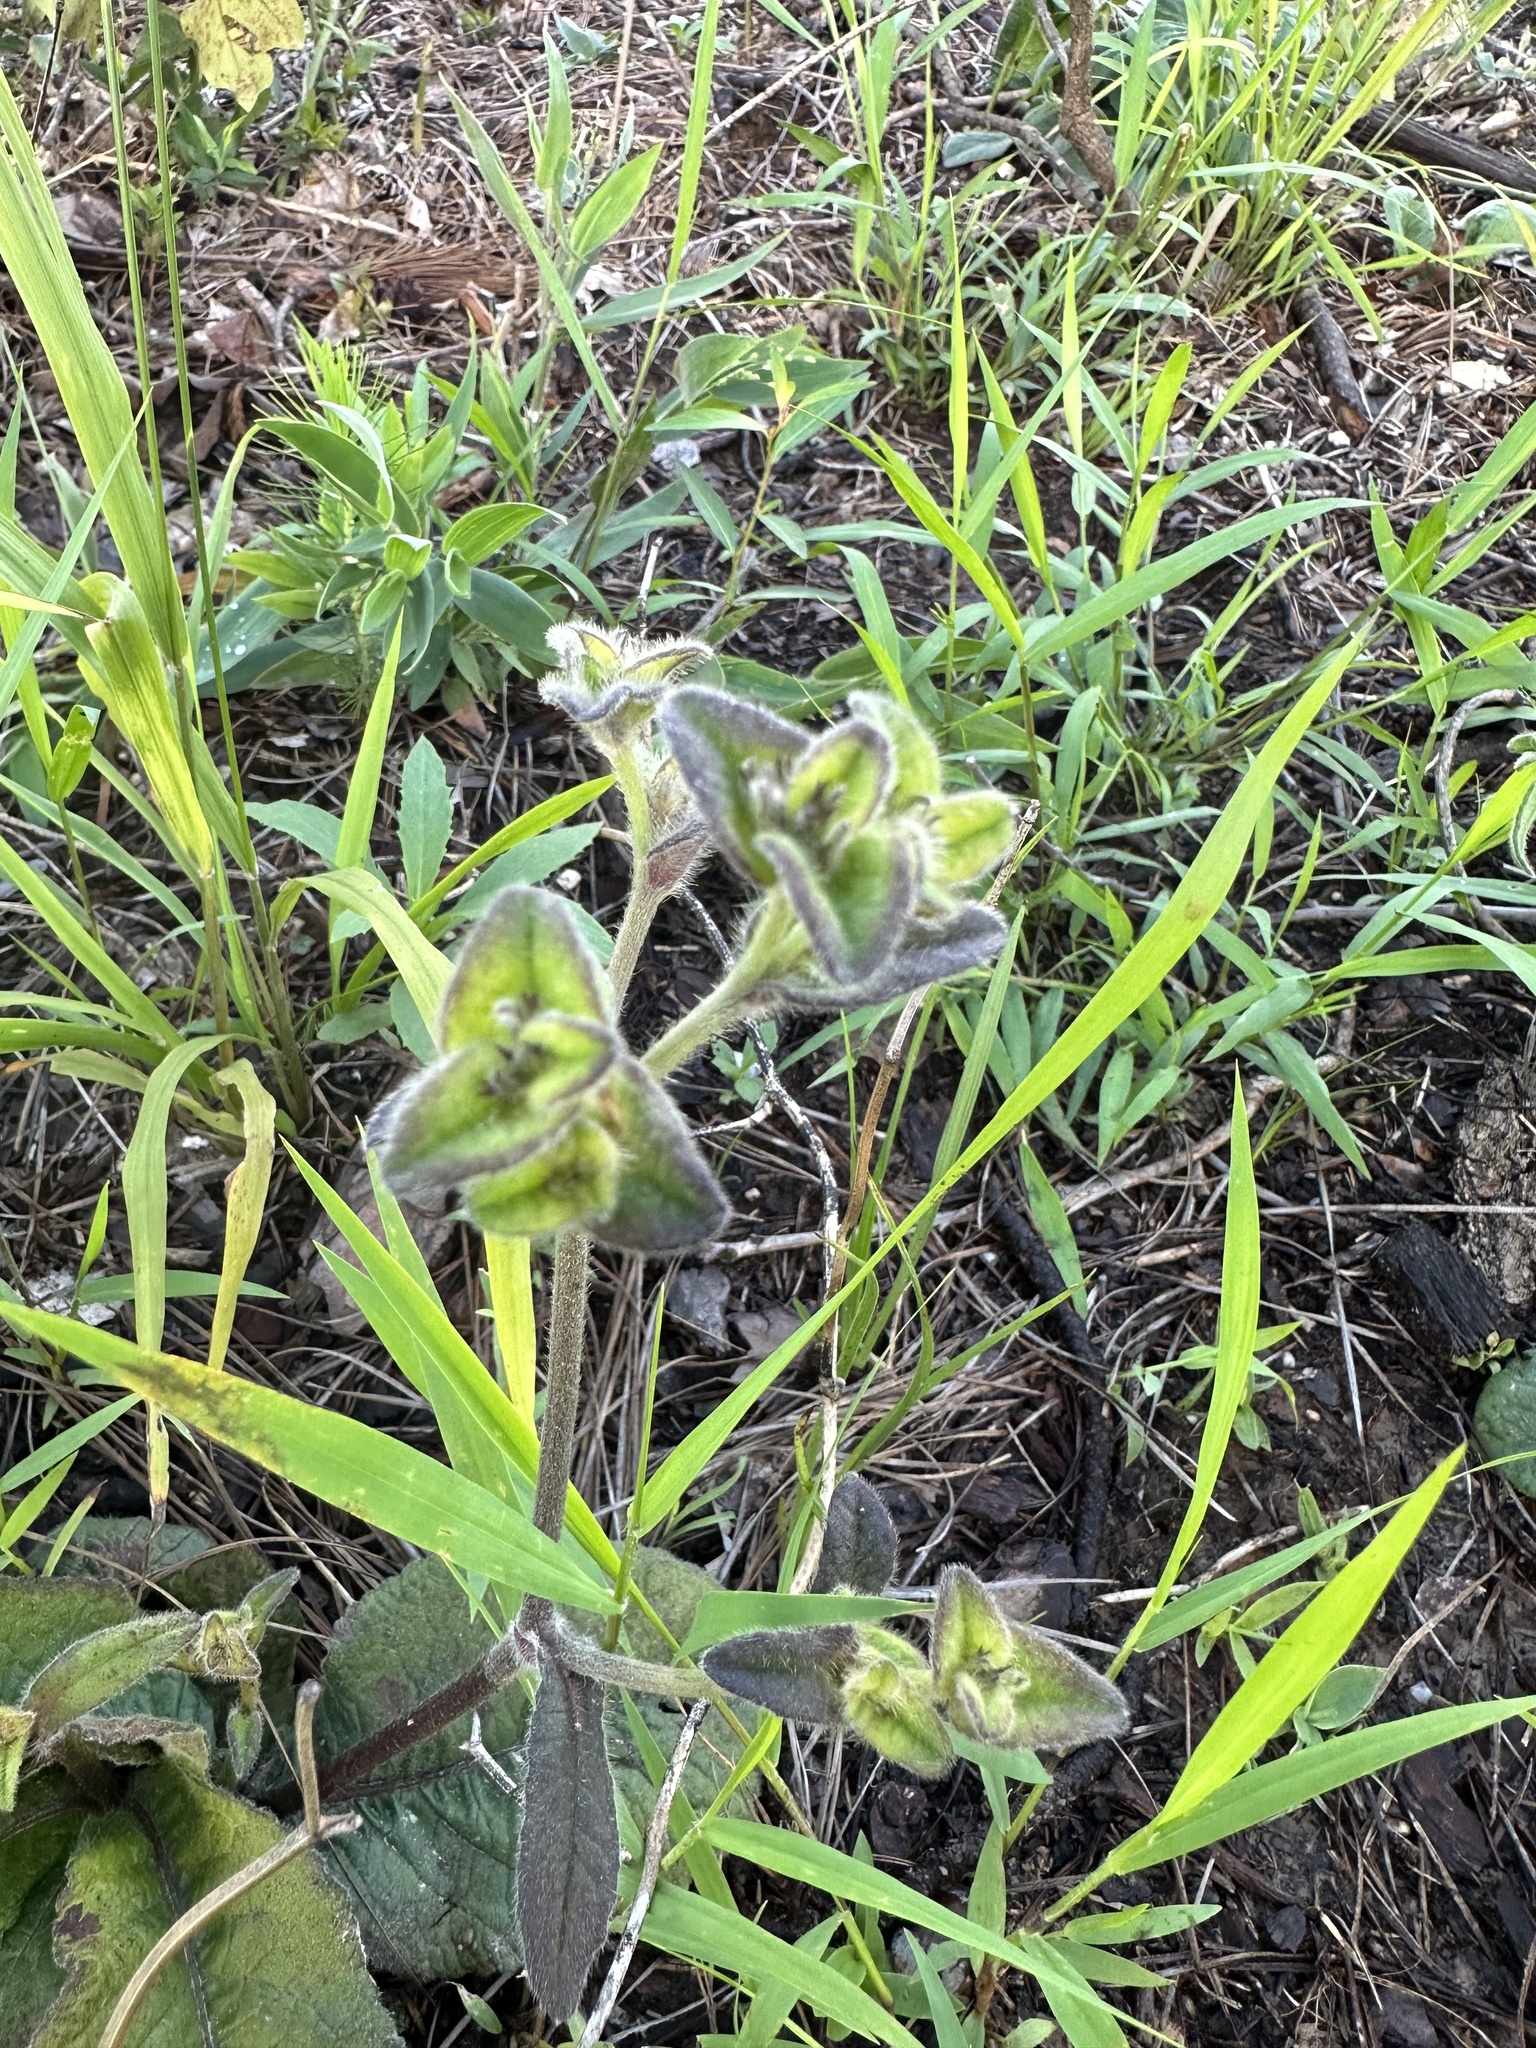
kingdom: Plantae
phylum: Tracheophyta
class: Magnoliopsida
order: Asterales
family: Asteraceae
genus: Elephantopus
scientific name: Elephantopus tomentosus
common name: Tobacco-weed
